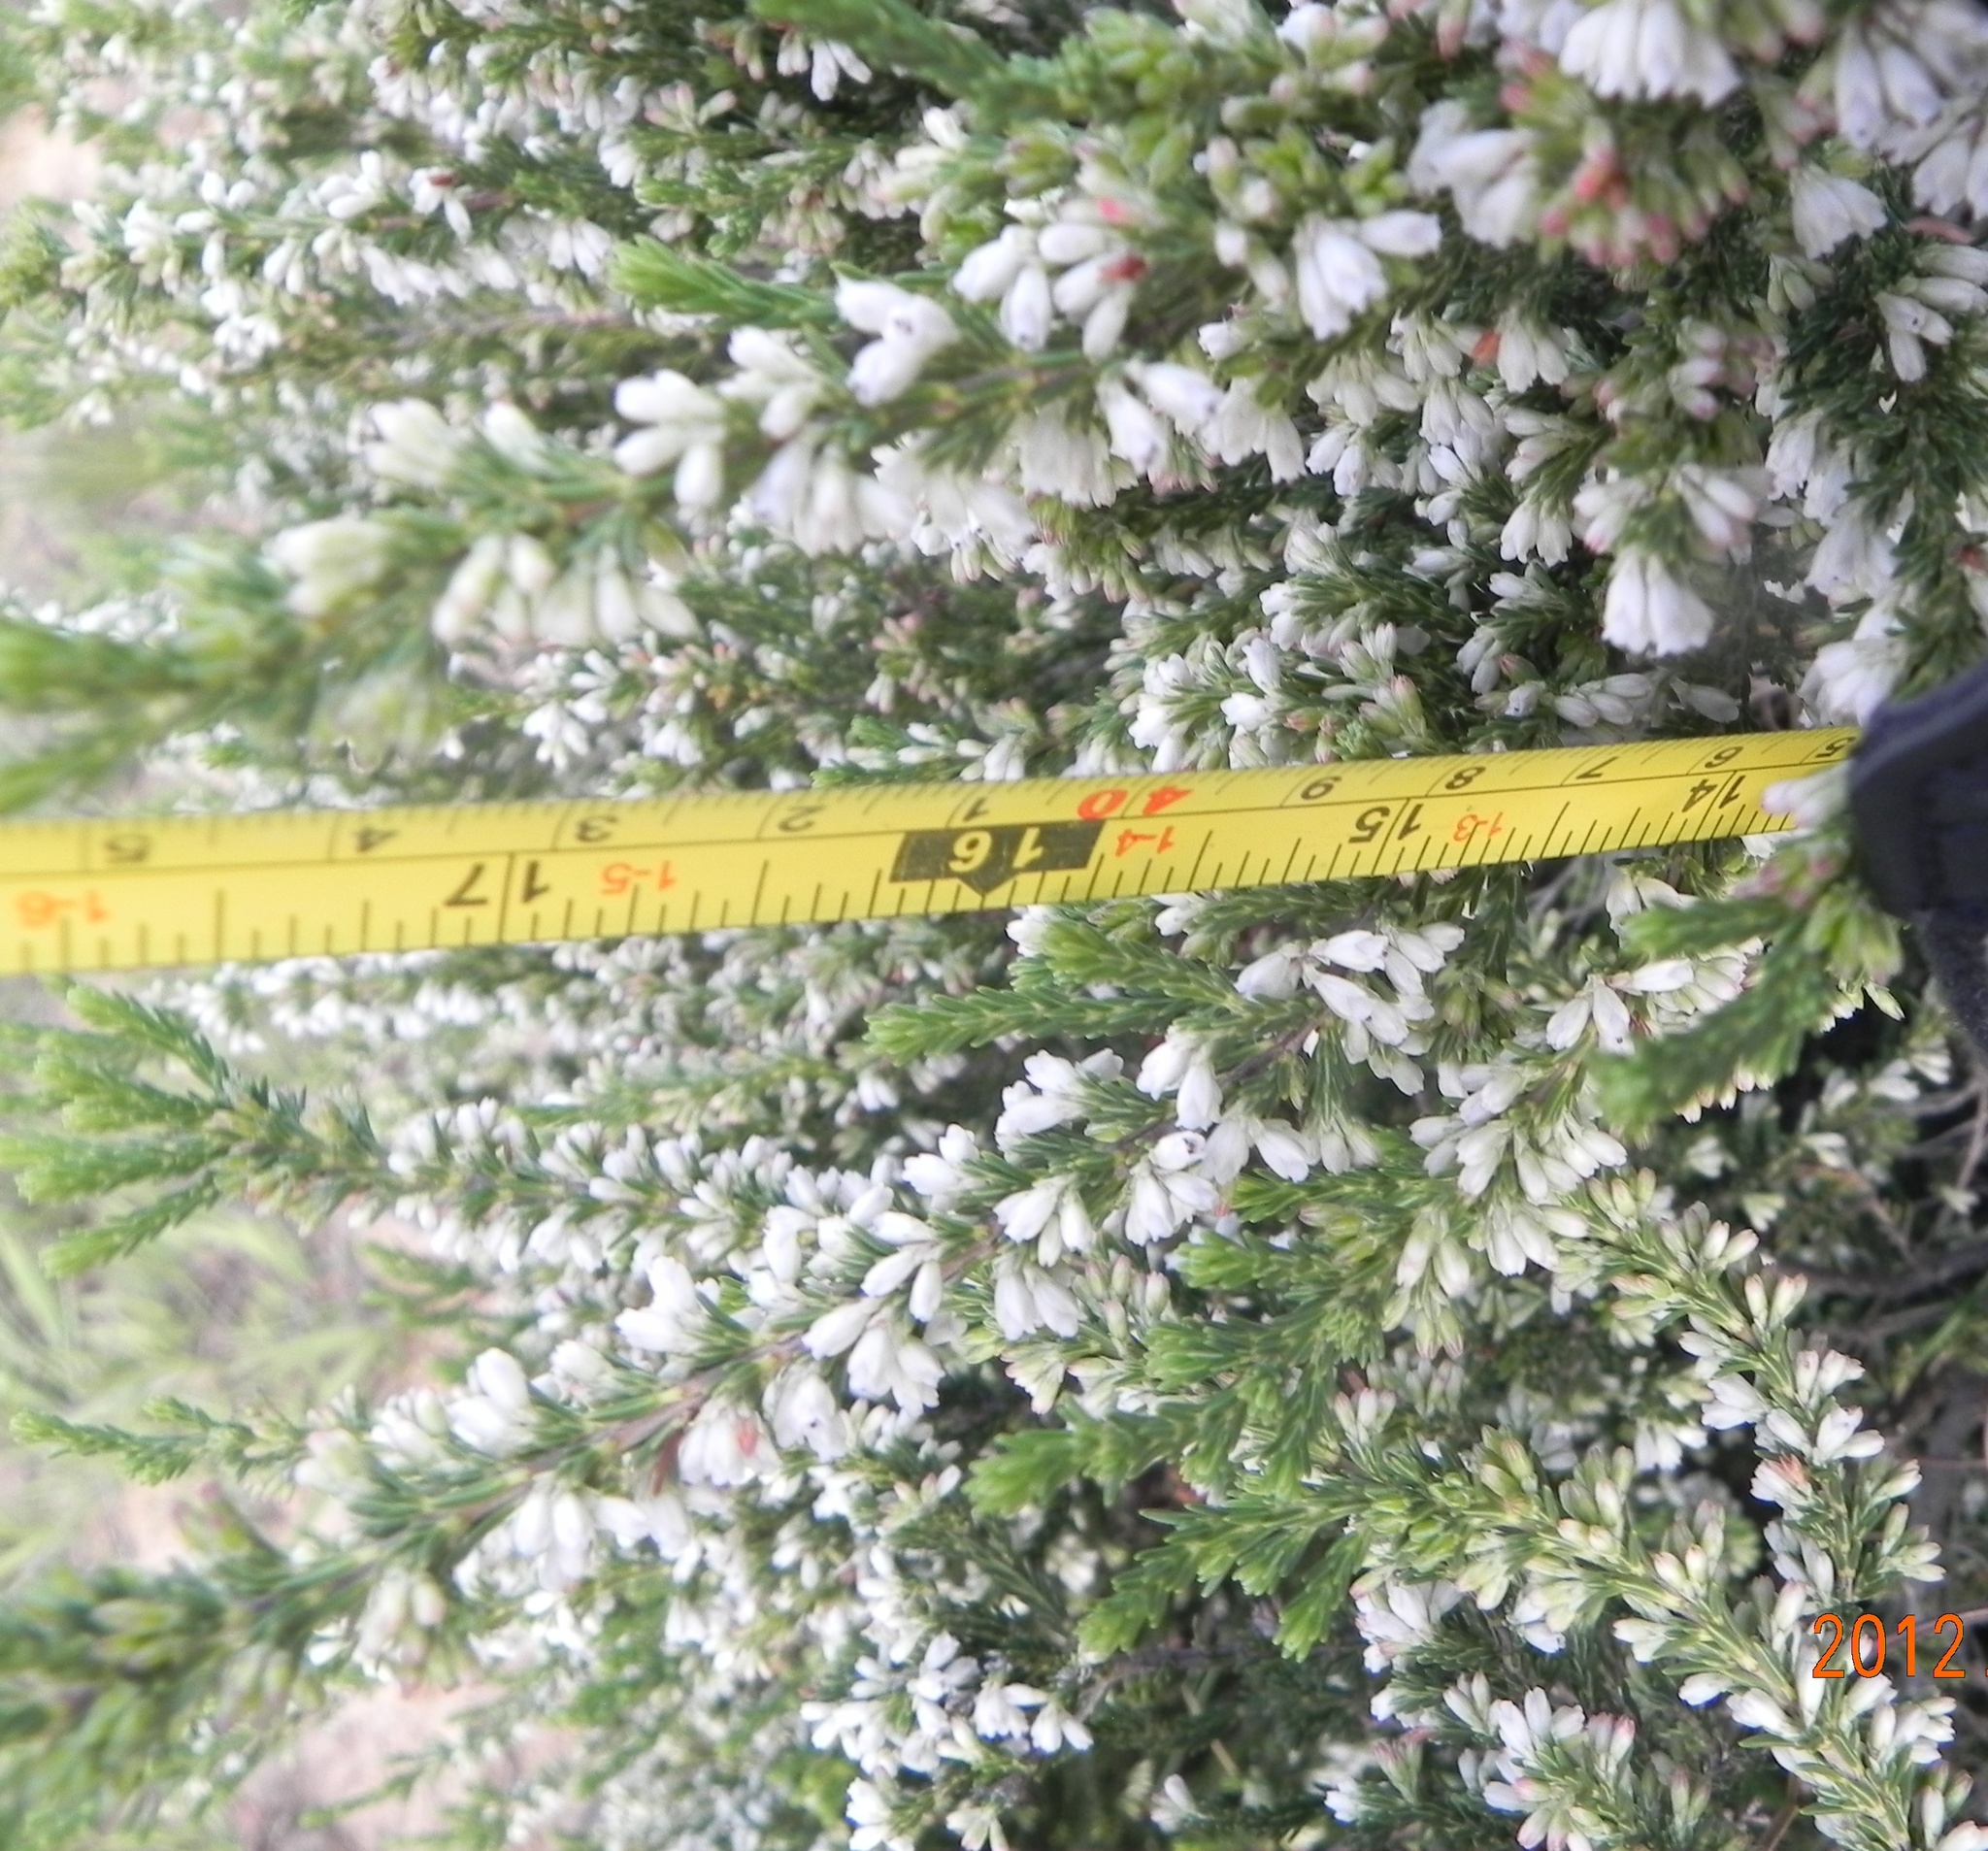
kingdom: Plantae
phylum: Tracheophyta
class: Magnoliopsida
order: Ericales
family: Ericaceae
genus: Erica
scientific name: Erica caffrorum
